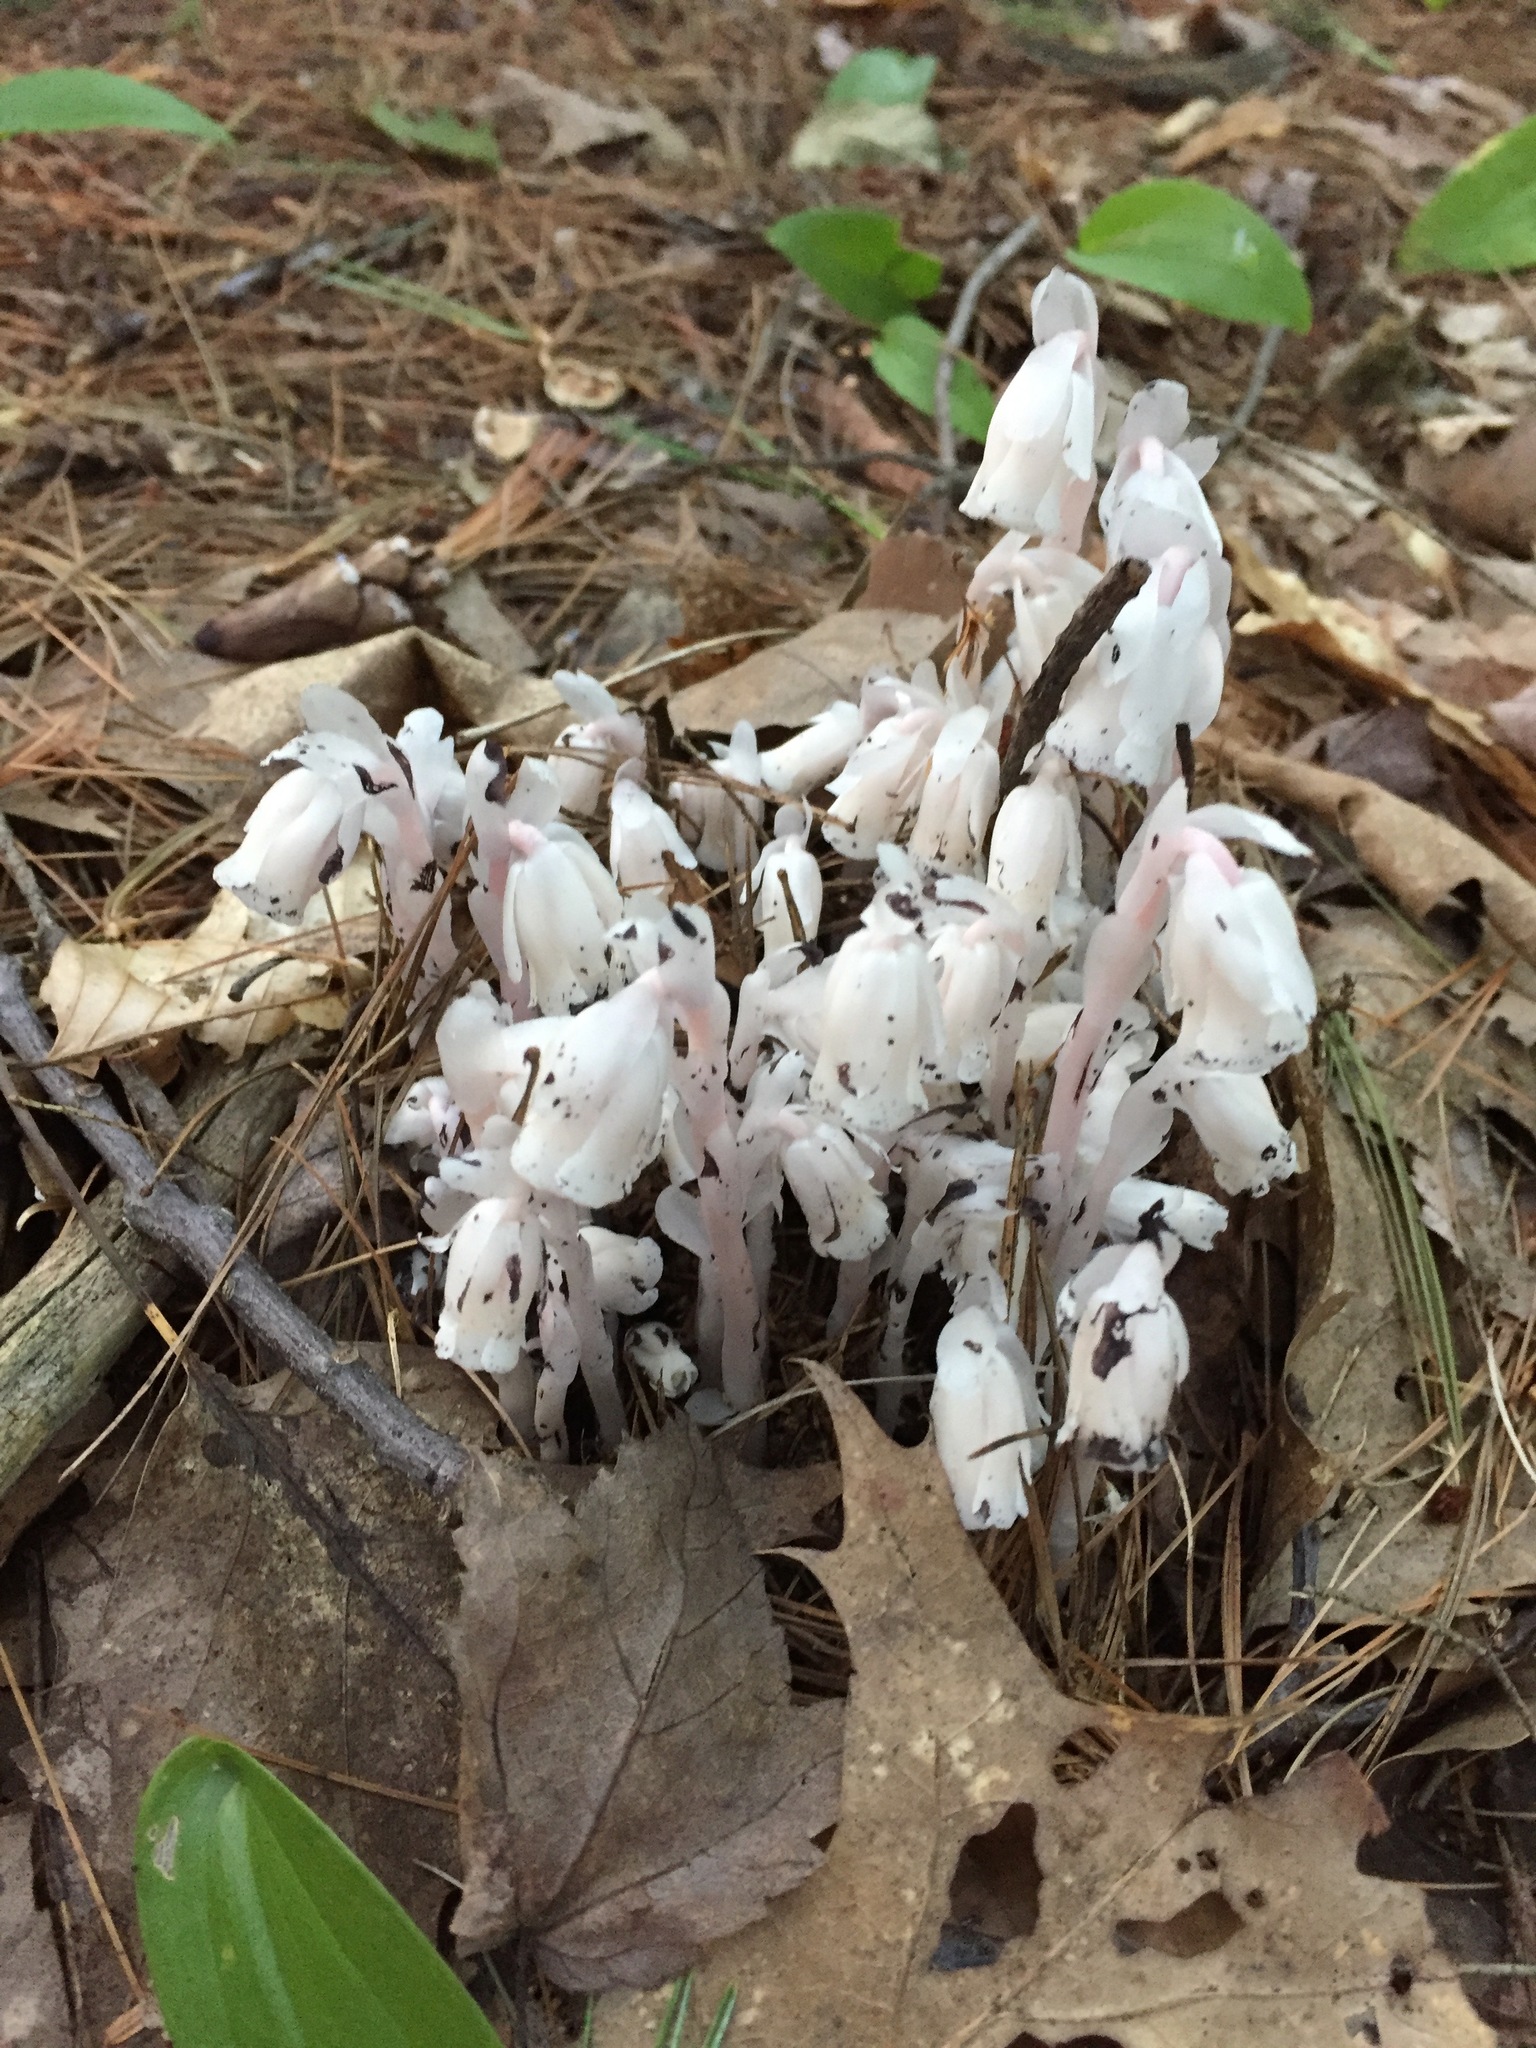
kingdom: Plantae
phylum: Tracheophyta
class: Magnoliopsida
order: Ericales
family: Ericaceae
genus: Monotropa
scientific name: Monotropa uniflora
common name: Convulsion root
